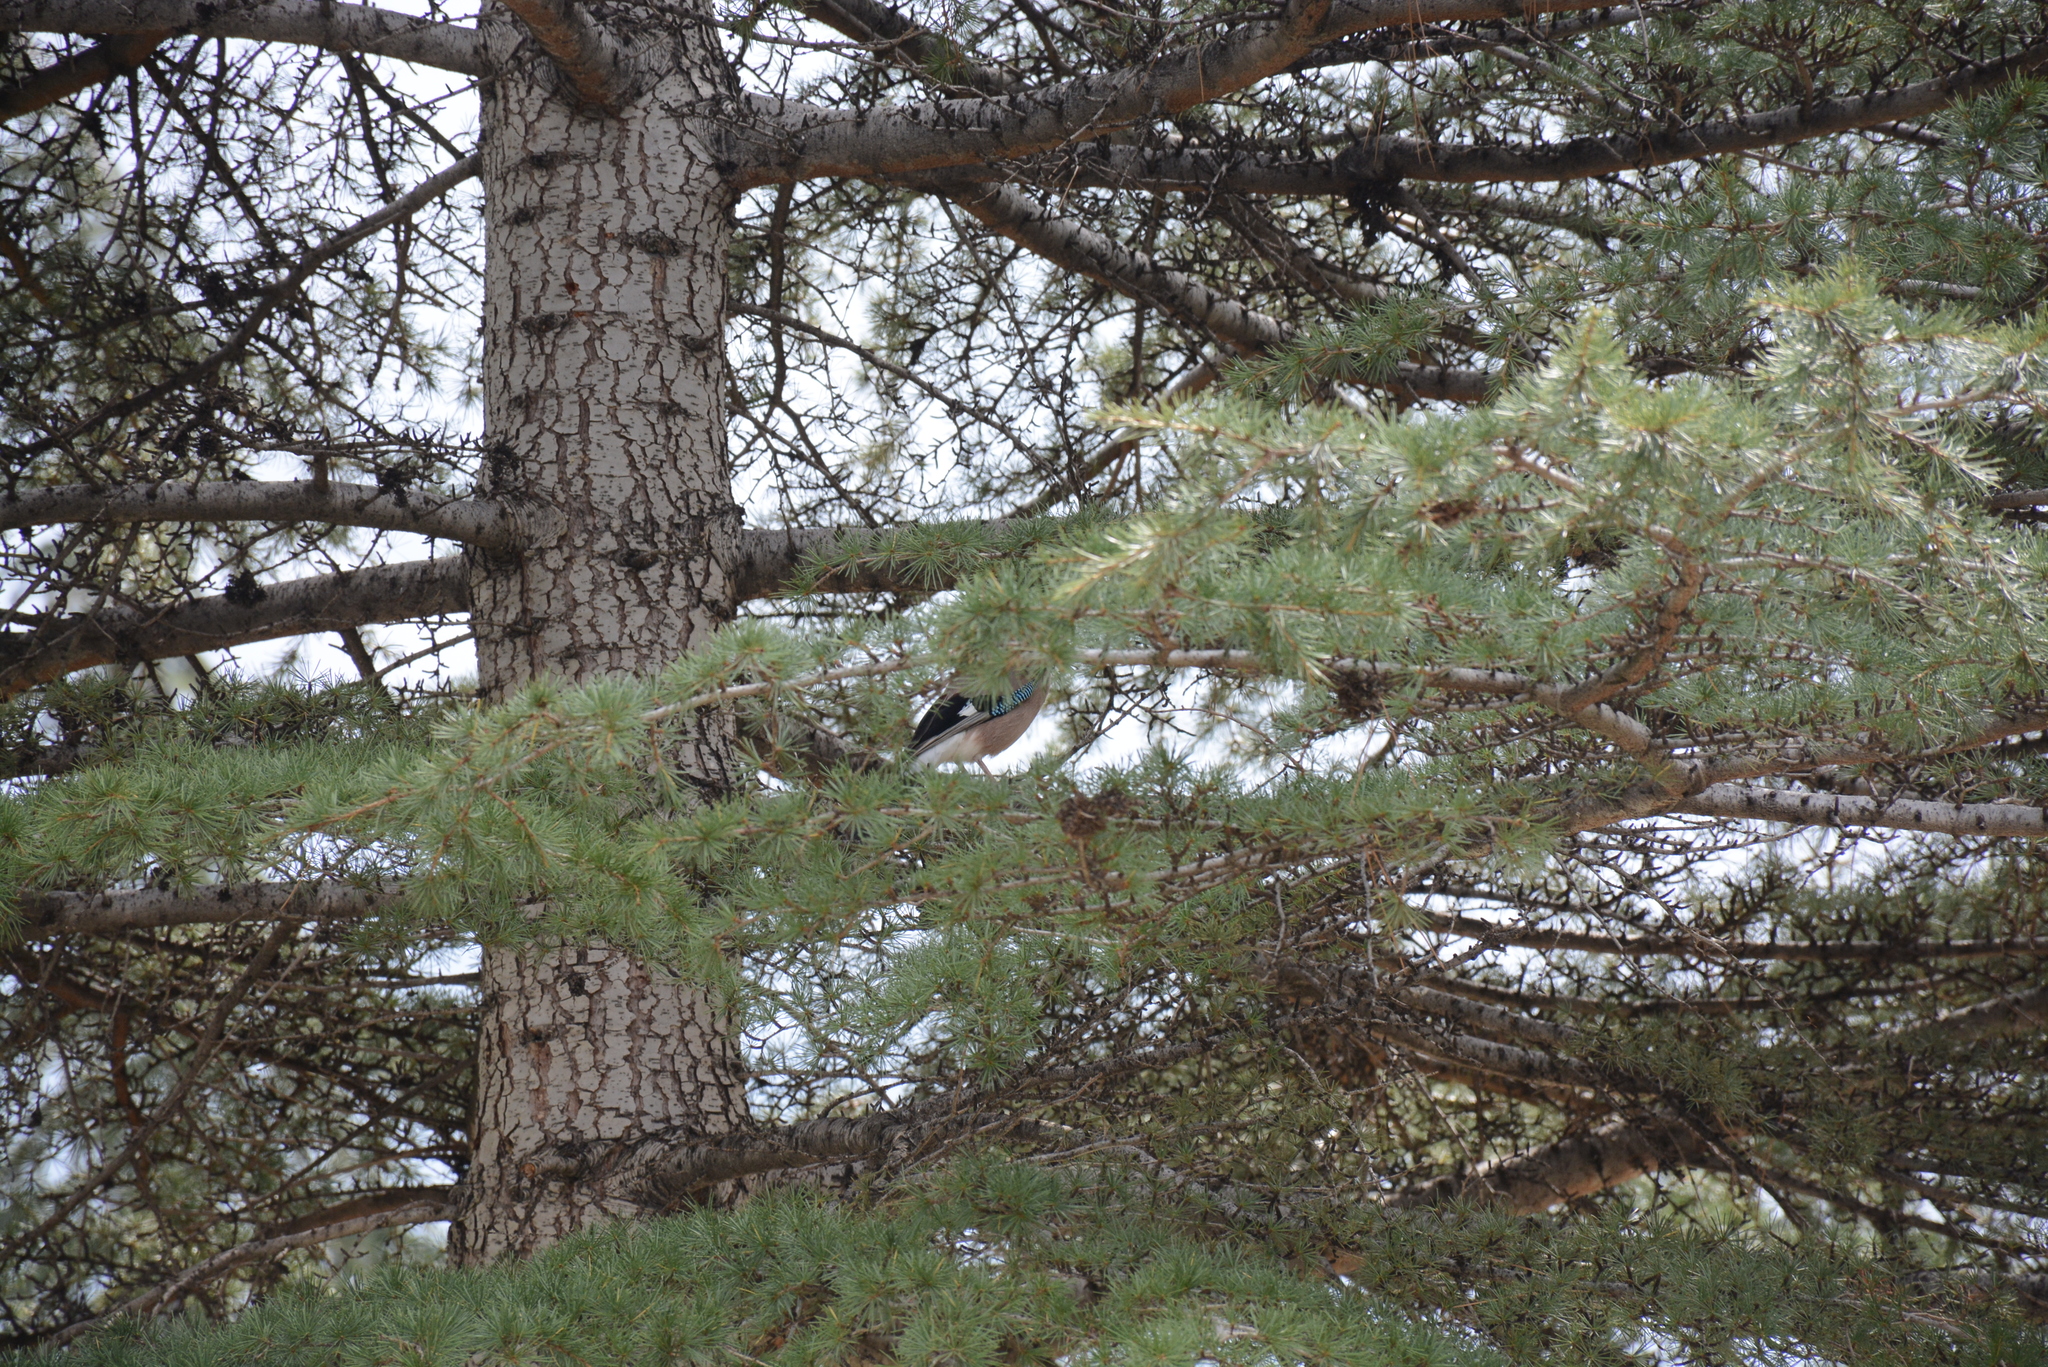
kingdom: Animalia
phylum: Chordata
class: Aves
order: Passeriformes
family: Corvidae
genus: Garrulus
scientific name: Garrulus glandarius
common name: Eurasian jay
